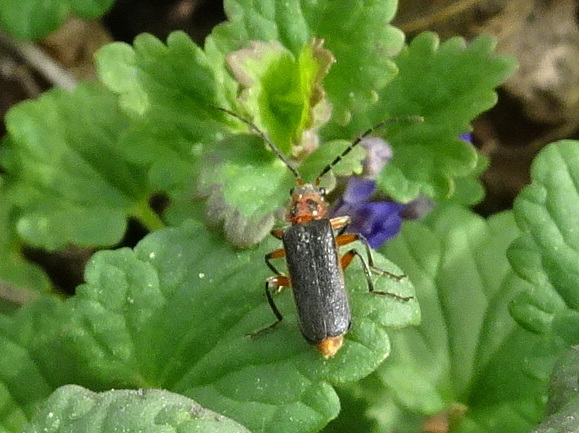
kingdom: Animalia
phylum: Arthropoda
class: Insecta
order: Coleoptera
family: Cantharidae
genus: Atalantycha
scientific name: Atalantycha bilineata
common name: Two-lined leatherwing
